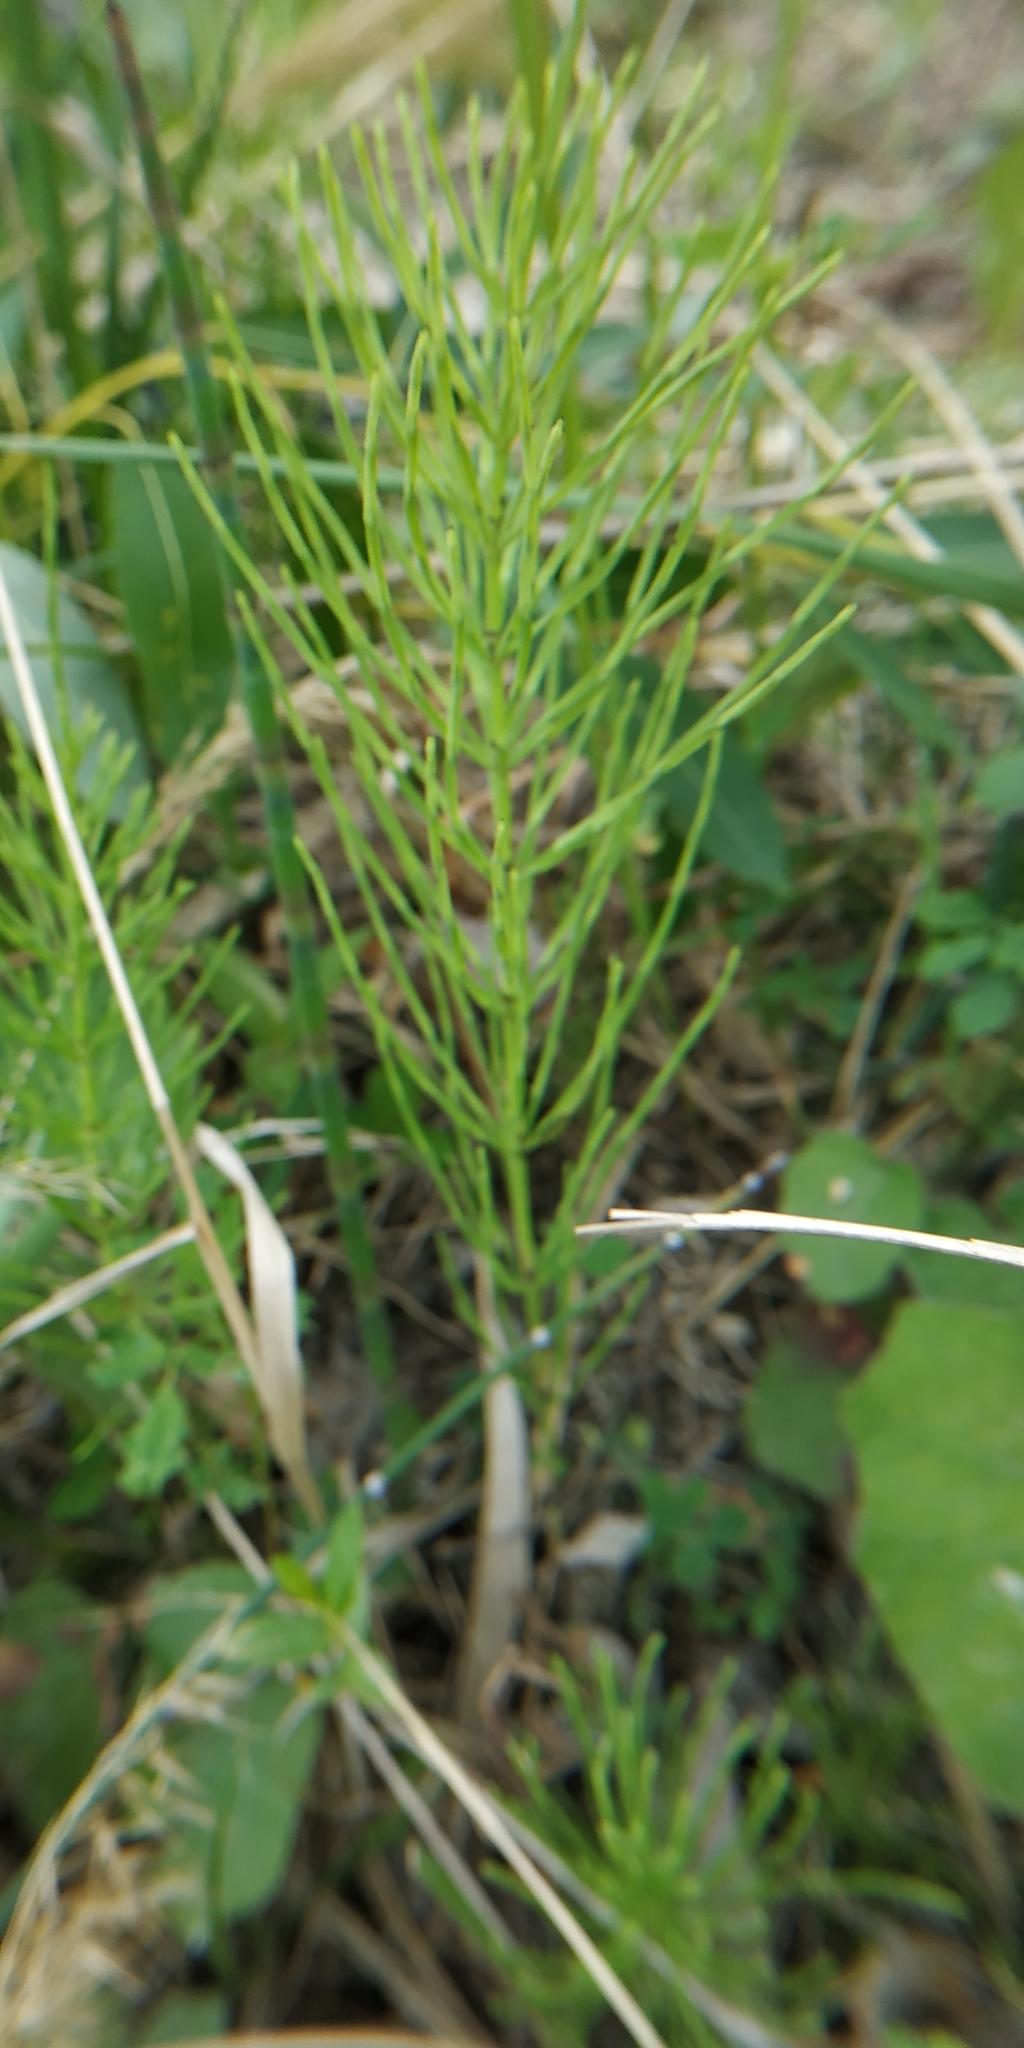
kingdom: Plantae
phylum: Tracheophyta
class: Polypodiopsida
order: Equisetales
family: Equisetaceae
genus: Equisetum
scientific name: Equisetum arvense
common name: Field horsetail
